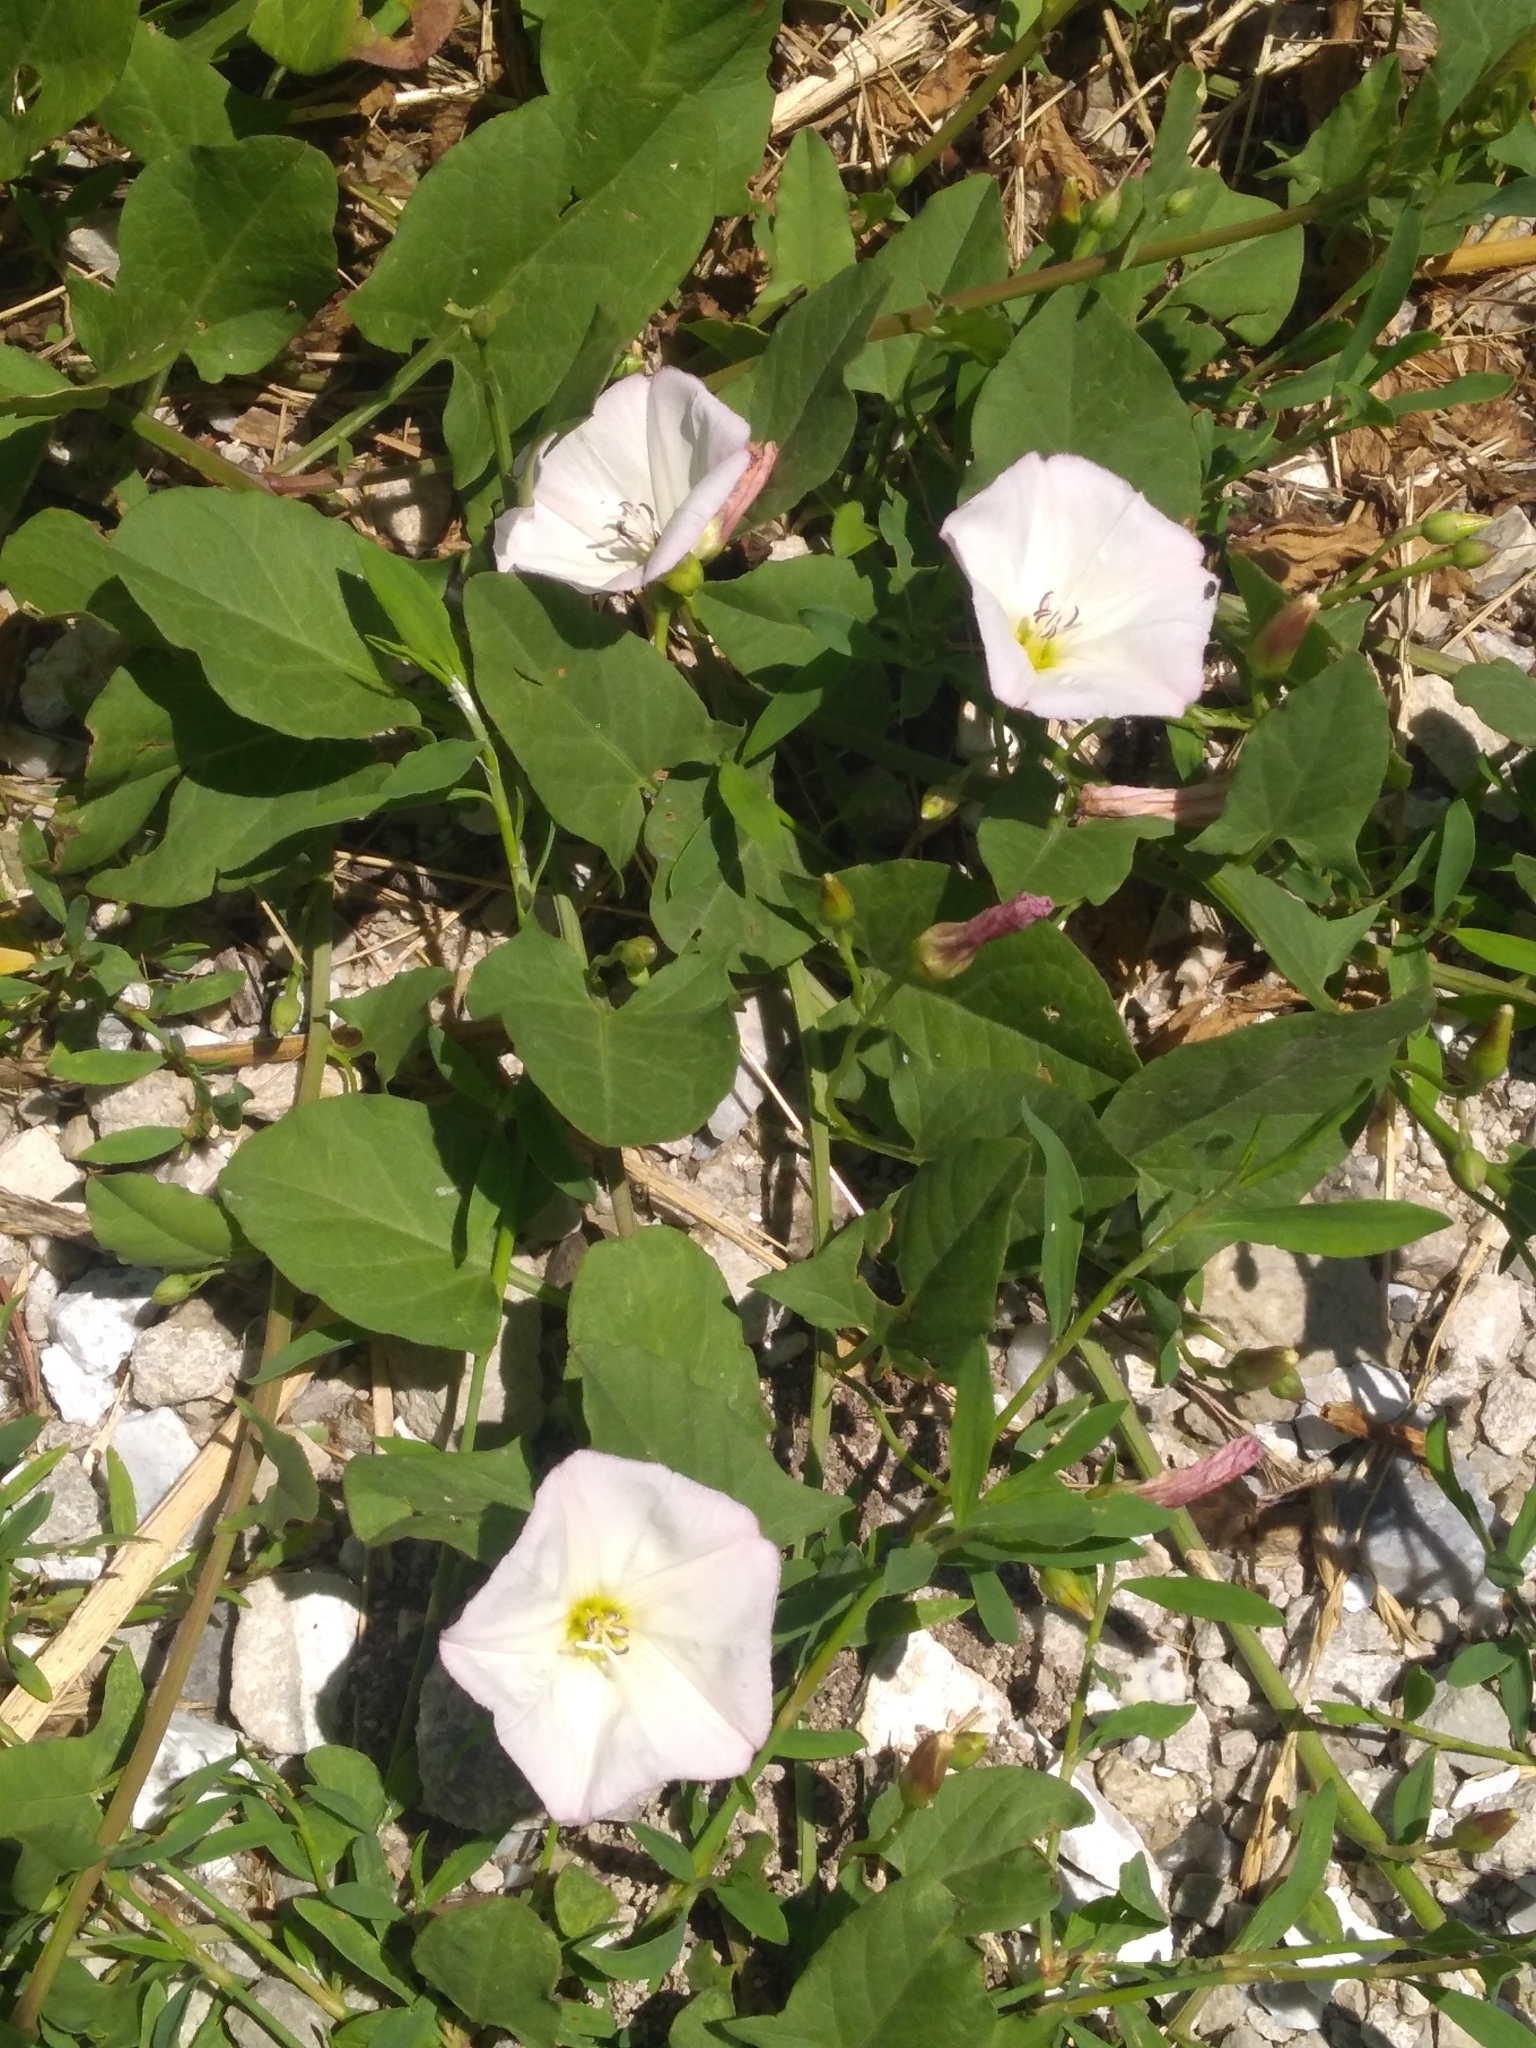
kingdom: Plantae
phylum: Tracheophyta
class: Magnoliopsida
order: Solanales
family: Convolvulaceae
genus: Convolvulus
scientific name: Convolvulus arvensis
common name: Field bindweed
